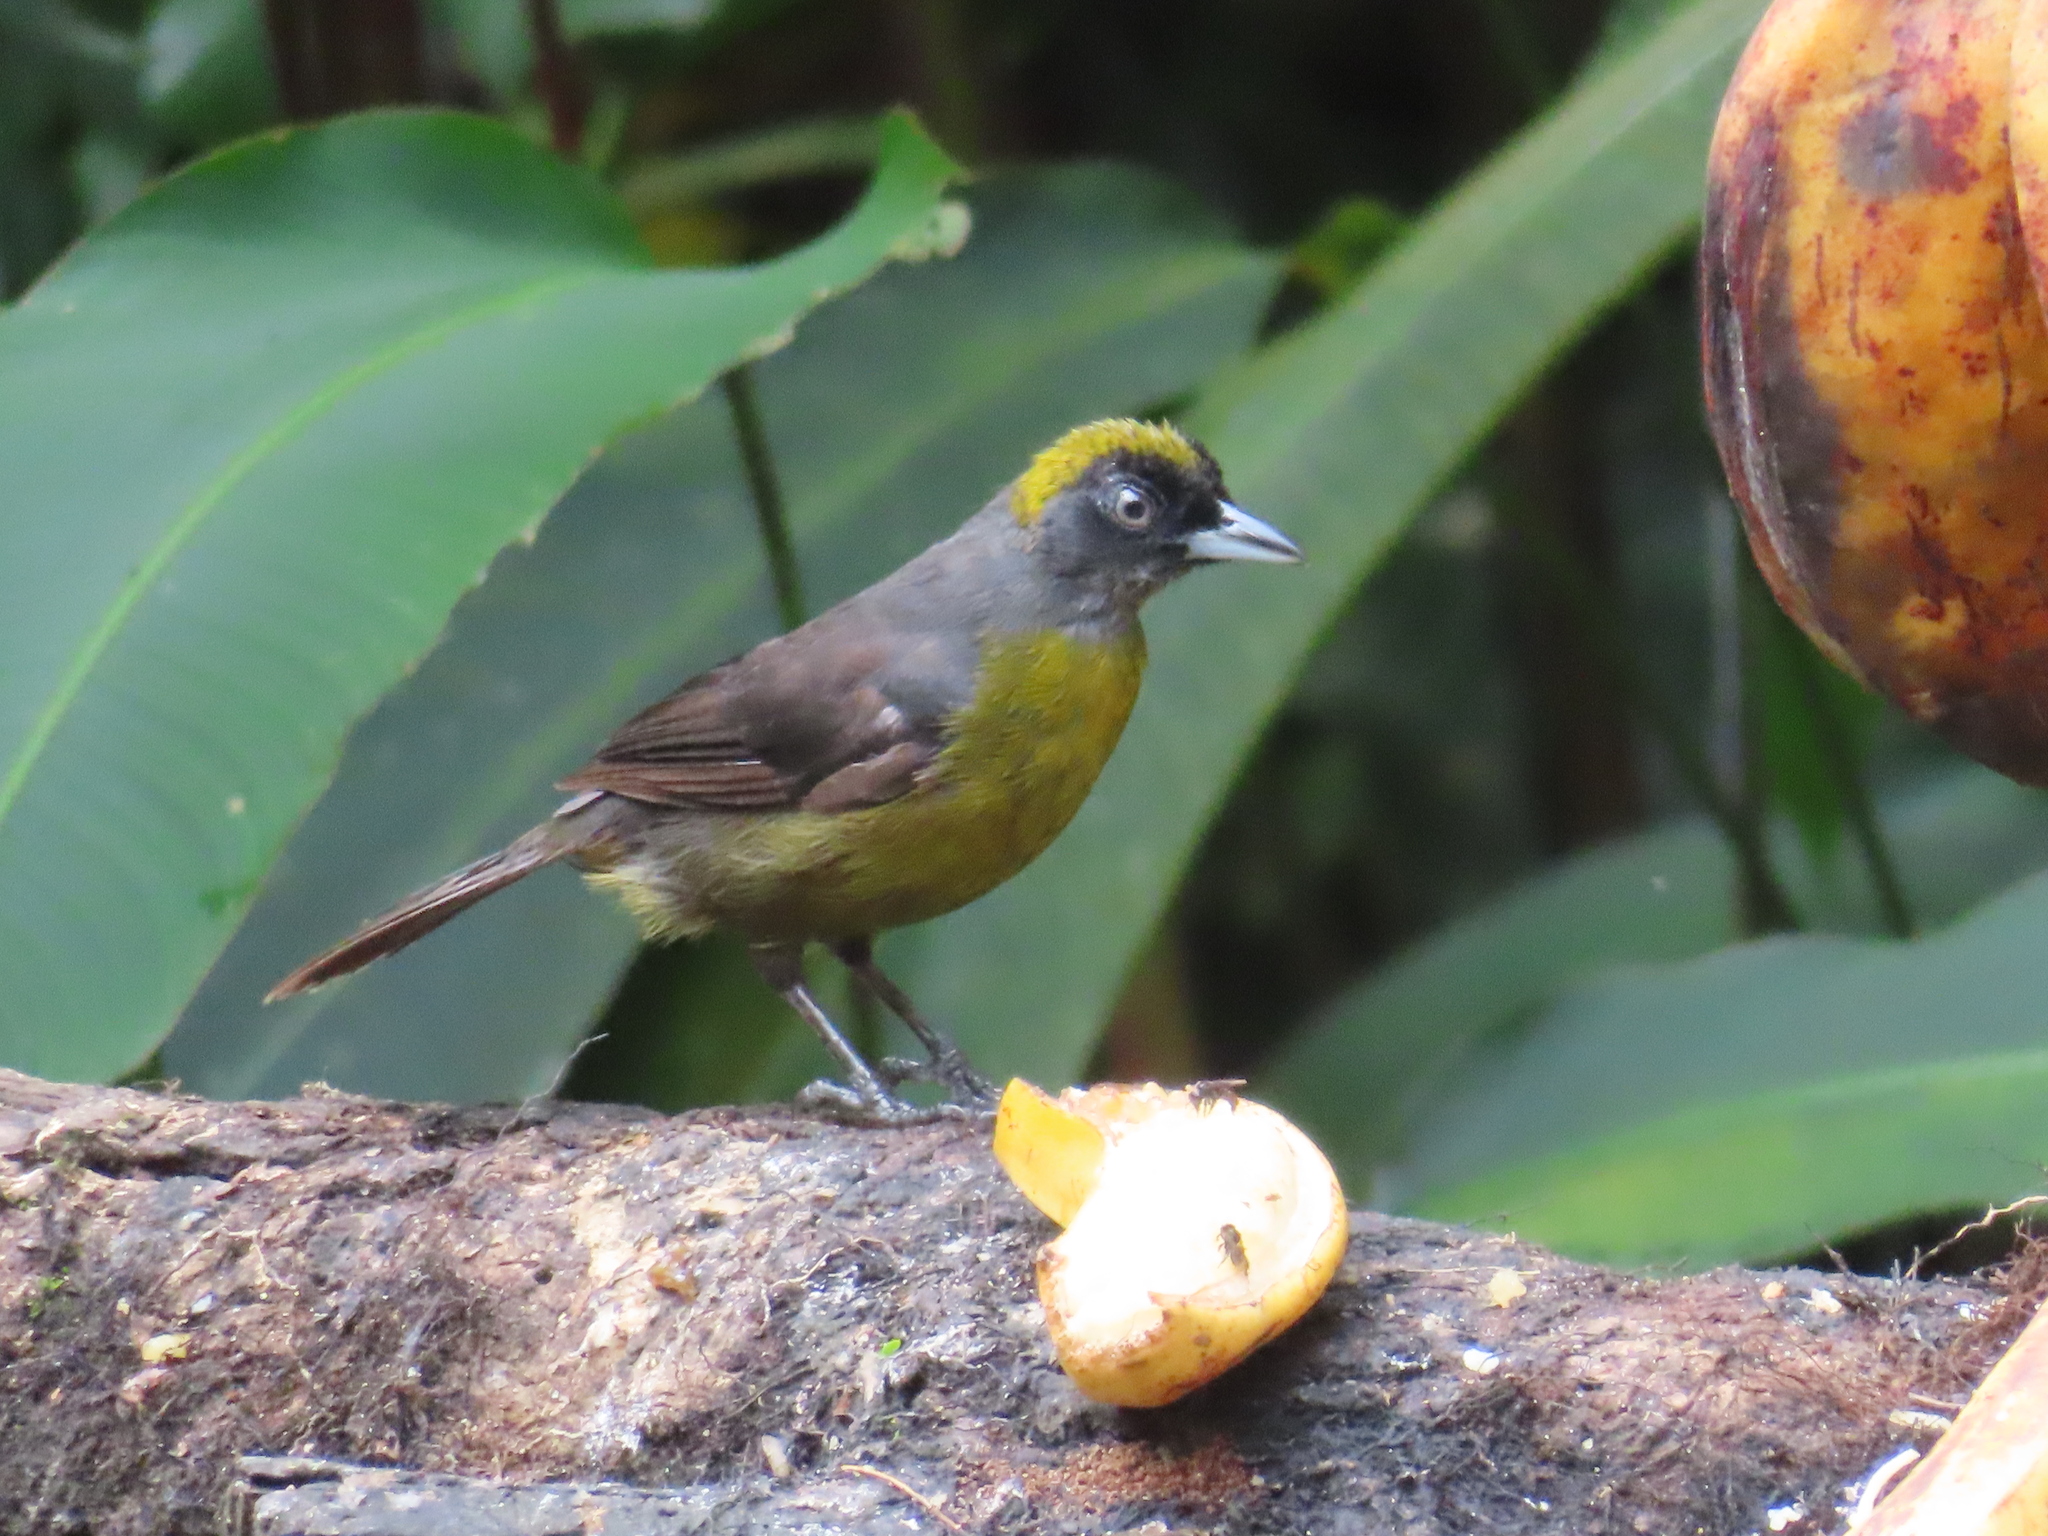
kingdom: Animalia
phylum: Chordata
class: Aves
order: Passeriformes
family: Mitrospingidae
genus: Mitrospingus
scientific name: Mitrospingus cassinii
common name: Dusky-faced tanager
